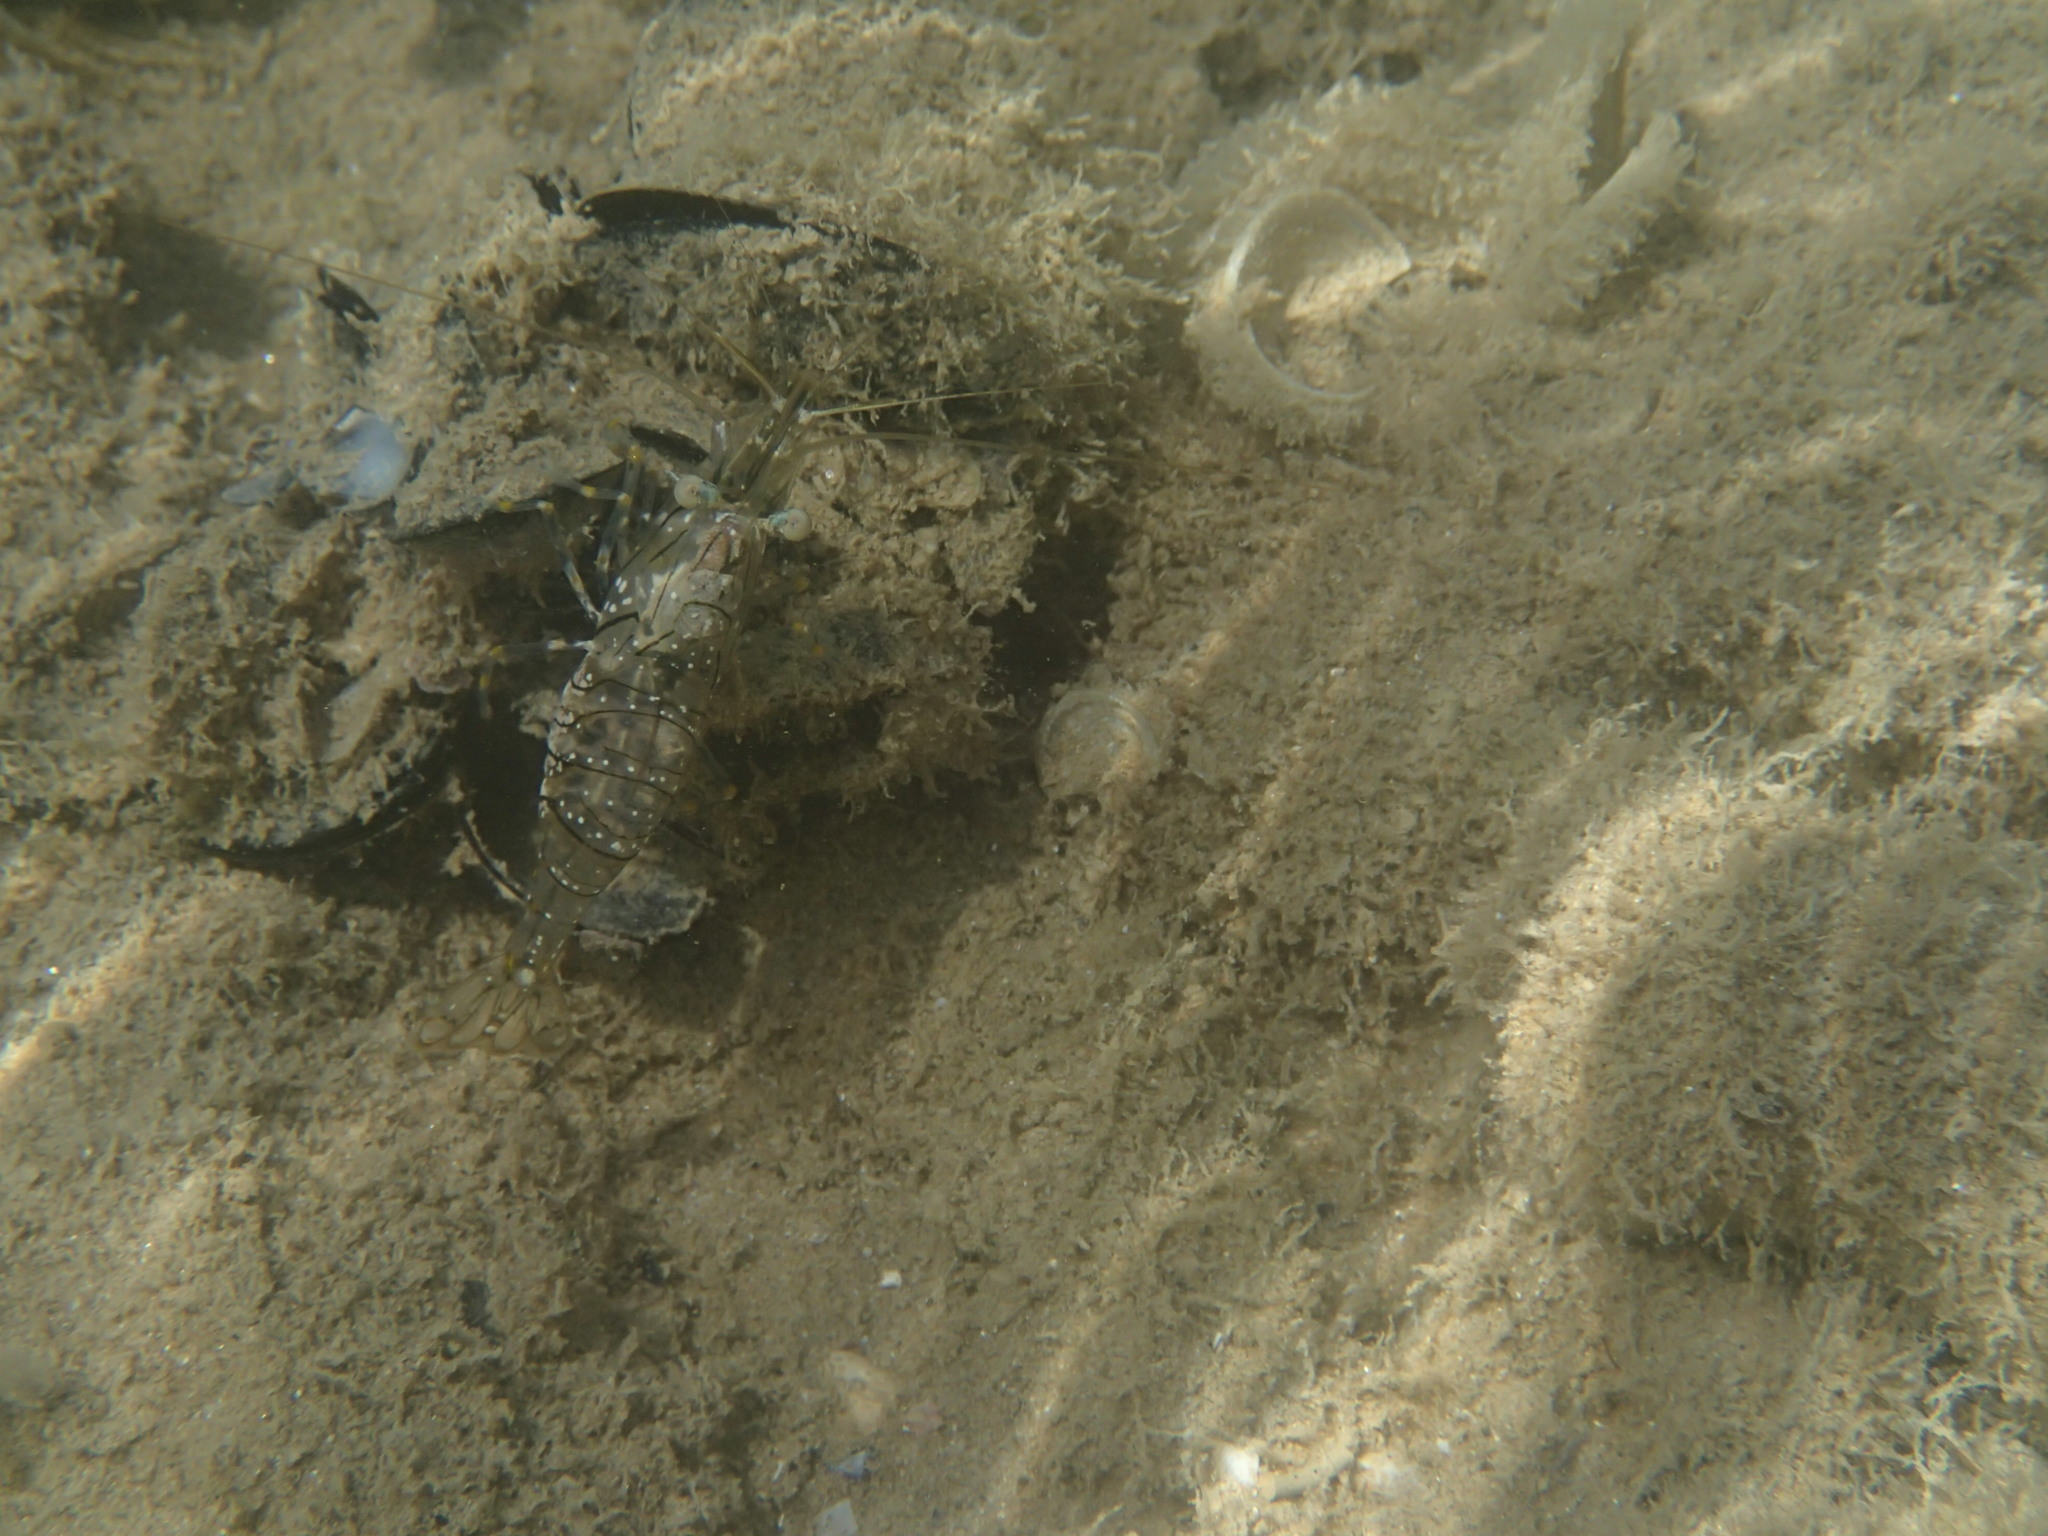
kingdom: Animalia
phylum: Arthropoda
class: Malacostraca
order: Decapoda
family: Palaemonidae
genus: Palaemon
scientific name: Palaemon elegans
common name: Grass prawm
